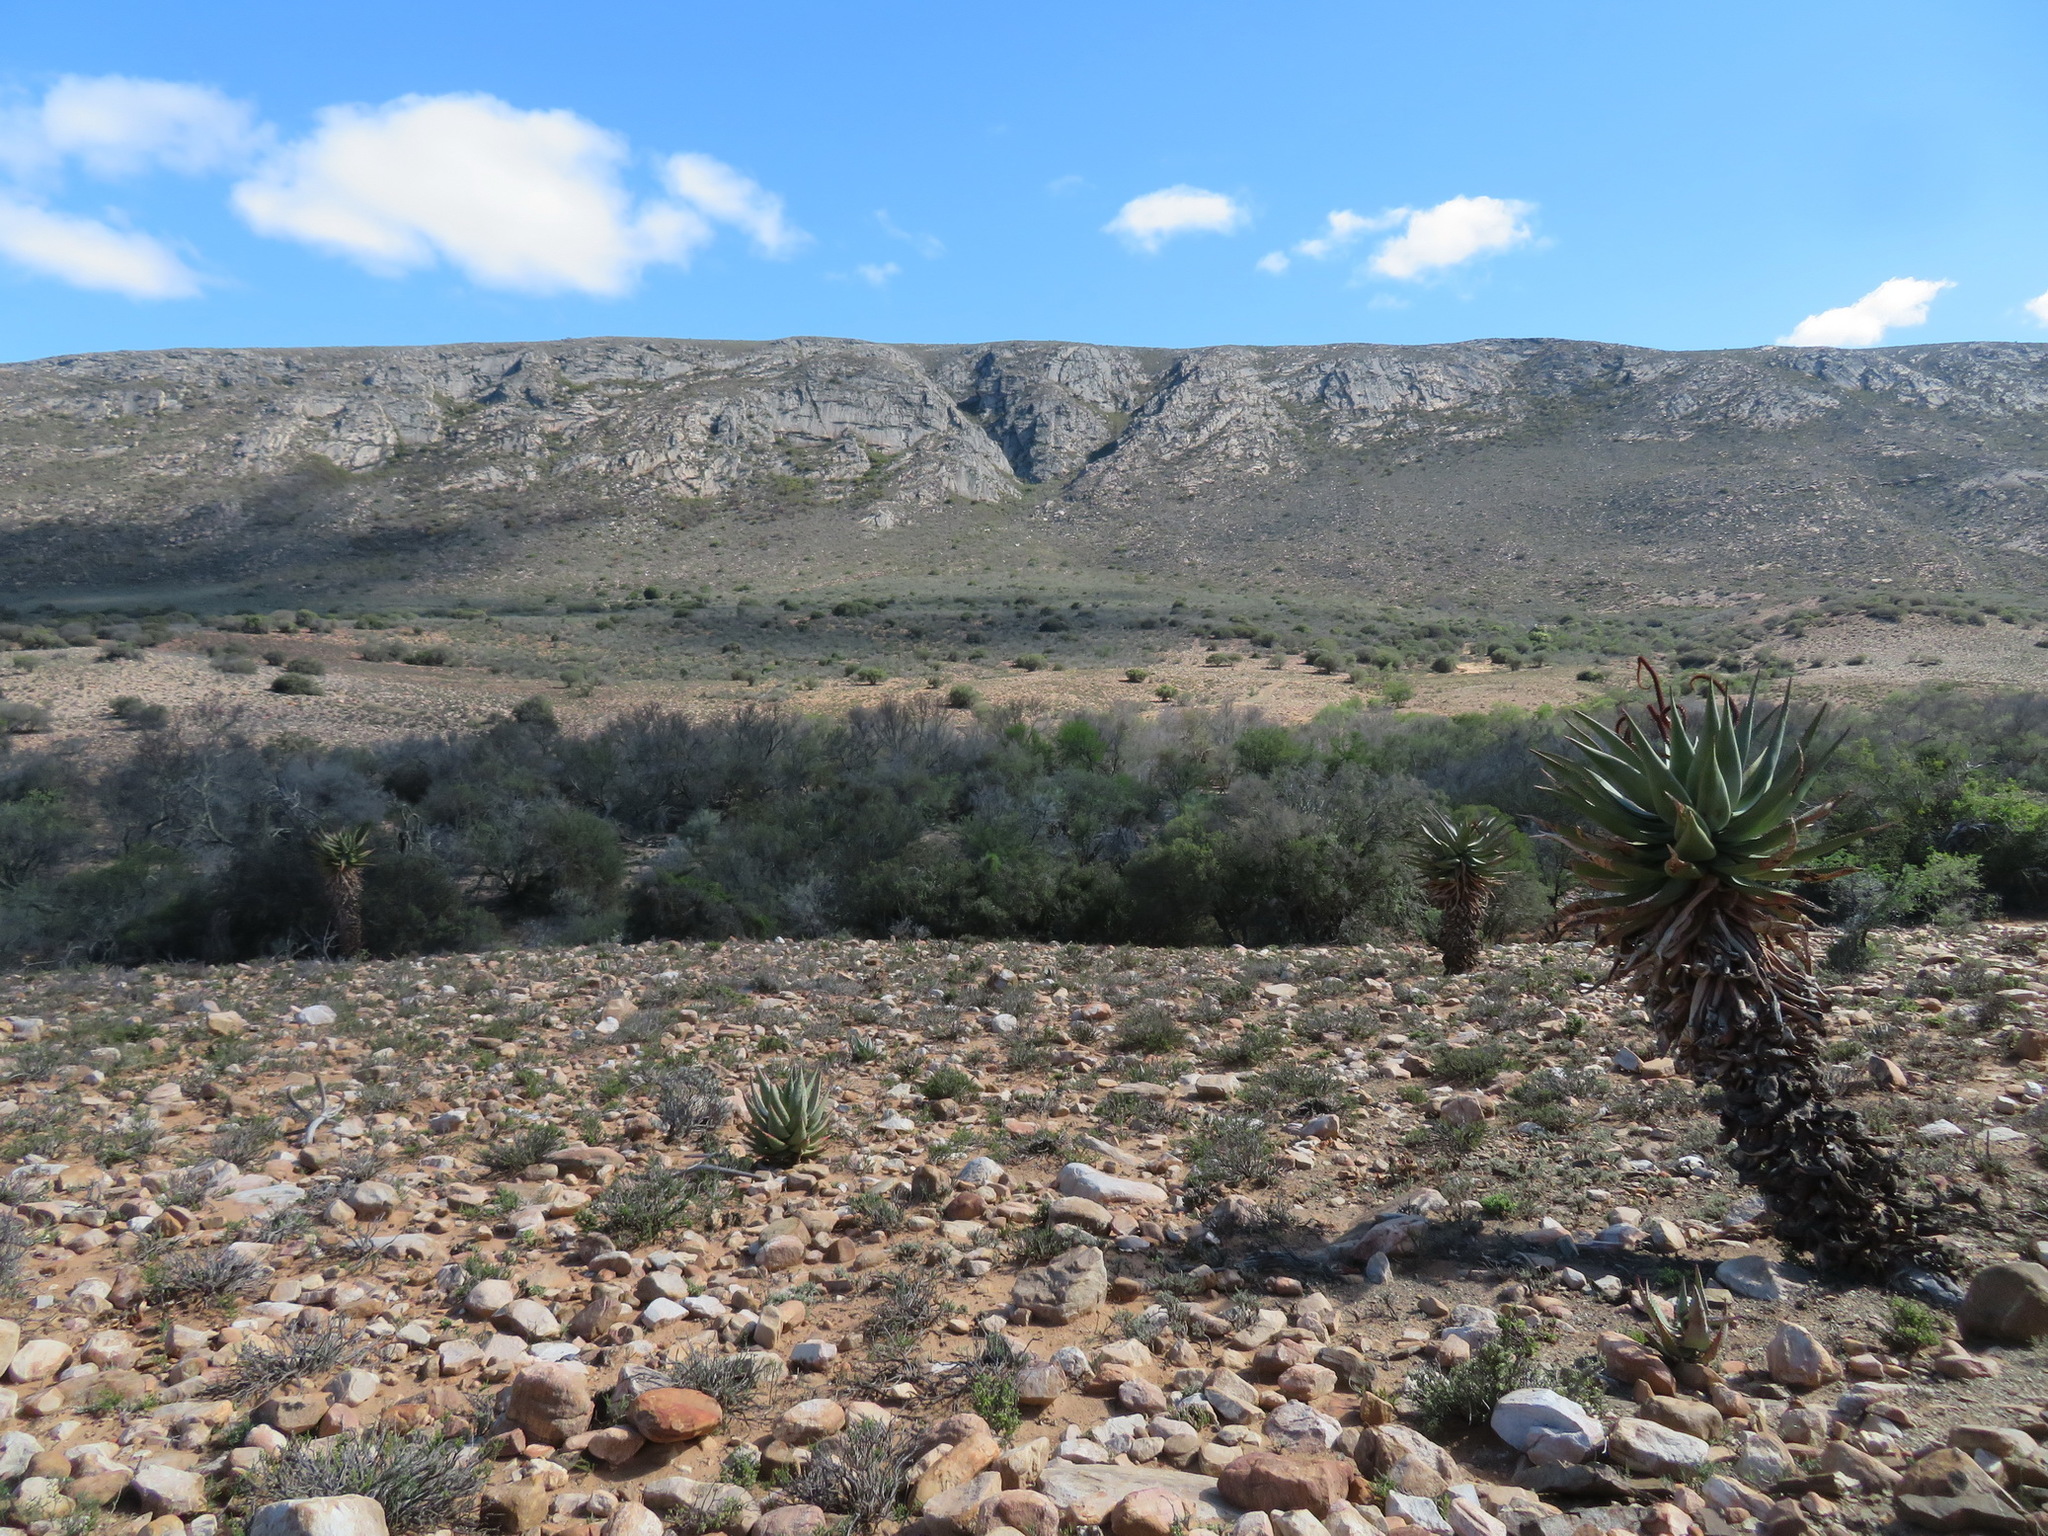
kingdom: Plantae
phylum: Tracheophyta
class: Liliopsida
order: Asparagales
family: Asphodelaceae
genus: Aloe
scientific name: Aloe ferox
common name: Bitter aloe
